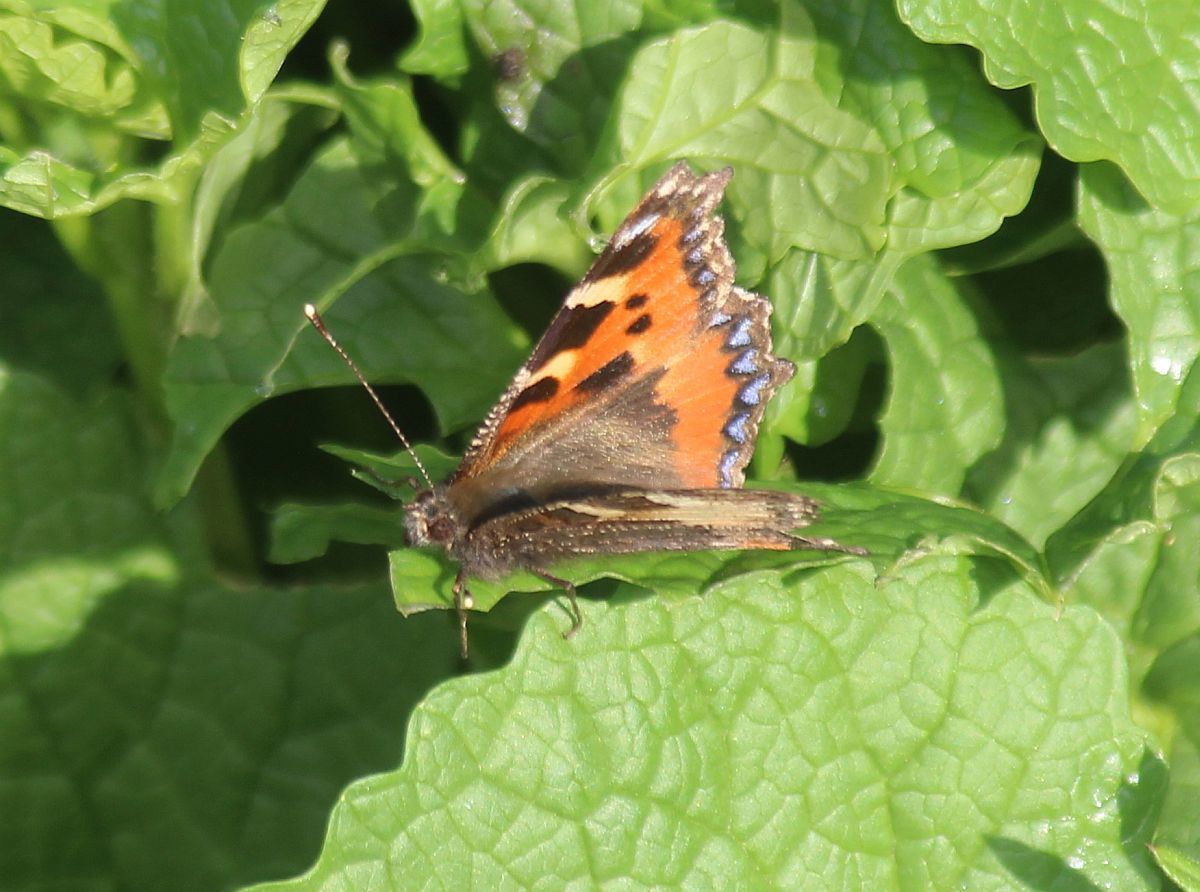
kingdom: Animalia
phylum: Arthropoda
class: Insecta
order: Lepidoptera
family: Nymphalidae
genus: Aglais
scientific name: Aglais urticae
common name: Small tortoiseshell
